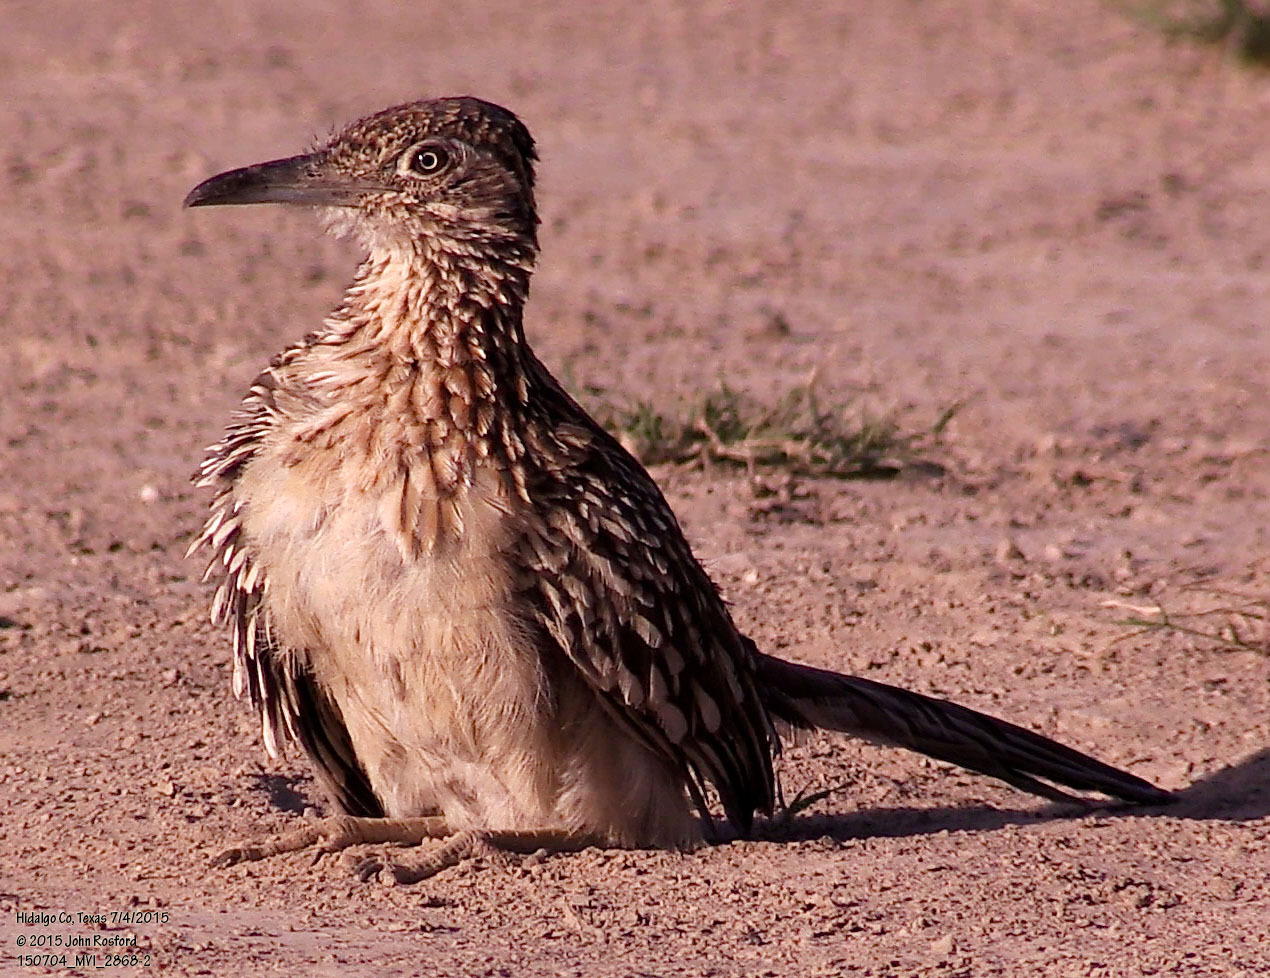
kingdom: Animalia
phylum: Chordata
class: Aves
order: Cuculiformes
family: Cuculidae
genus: Geococcyx
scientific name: Geococcyx californianus
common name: Greater roadrunner
